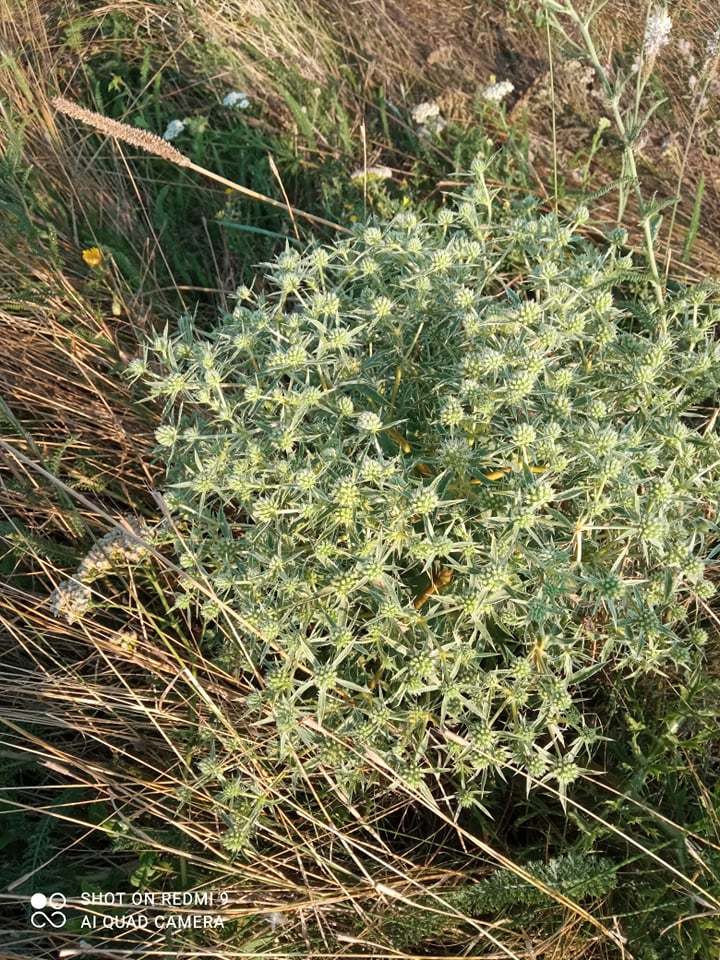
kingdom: Plantae
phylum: Tracheophyta
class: Magnoliopsida
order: Apiales
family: Apiaceae
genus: Eryngium
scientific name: Eryngium campestre
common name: Field eryngo
